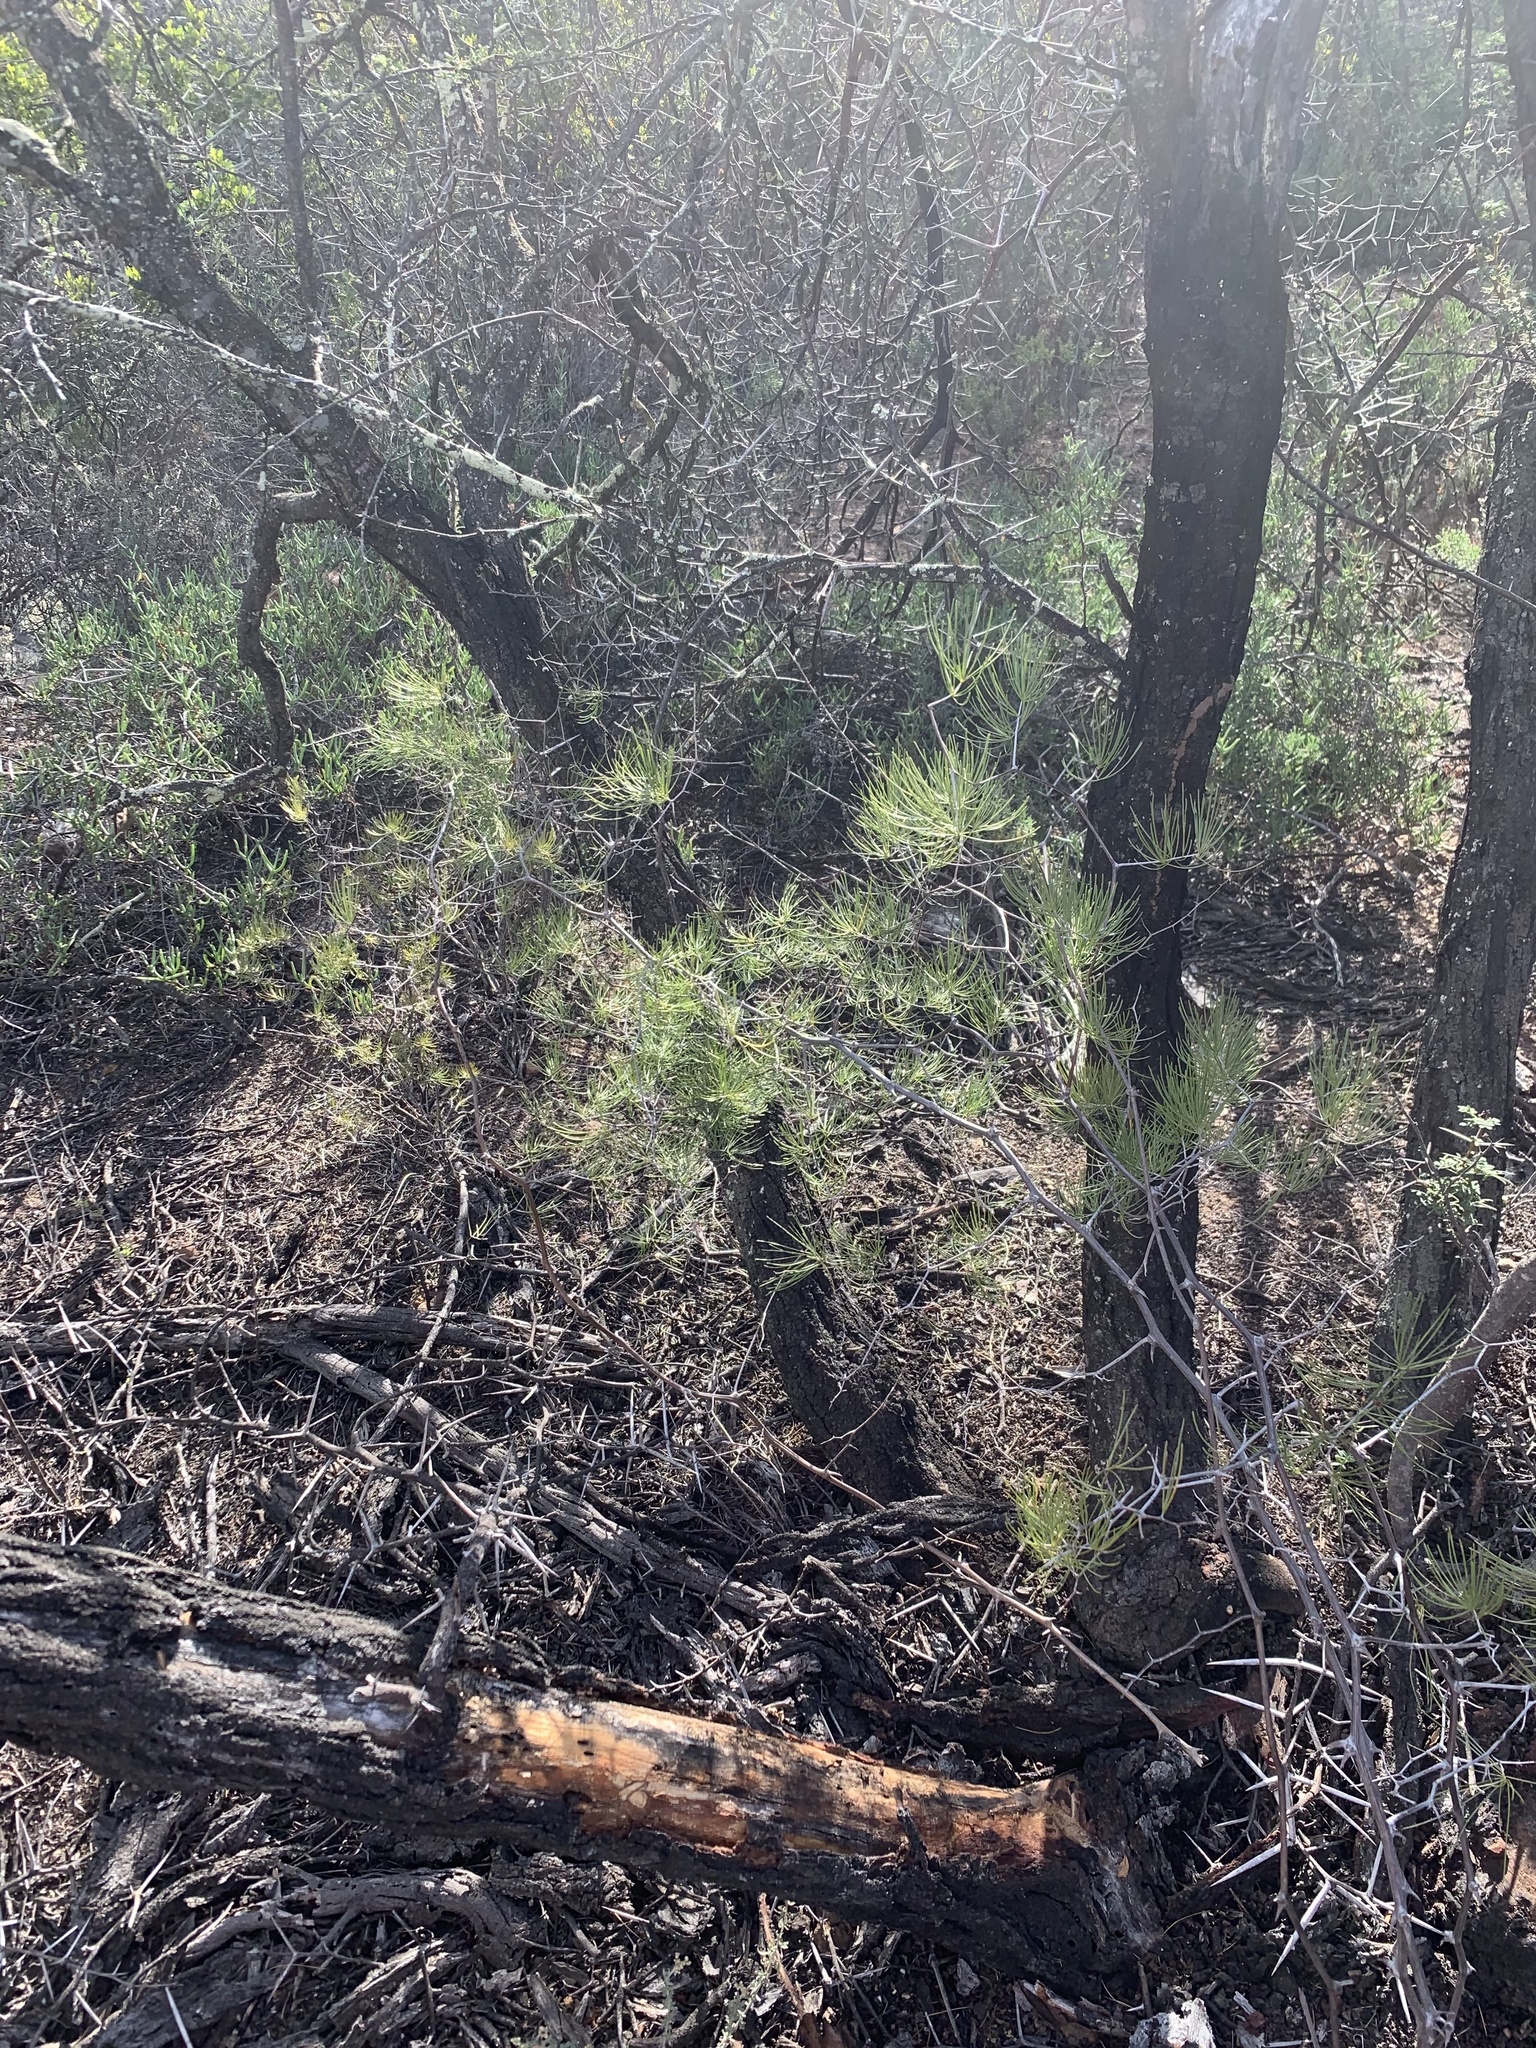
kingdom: Plantae
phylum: Tracheophyta
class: Liliopsida
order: Asparagales
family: Asparagaceae
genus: Asparagus
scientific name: Asparagus retrofractus
